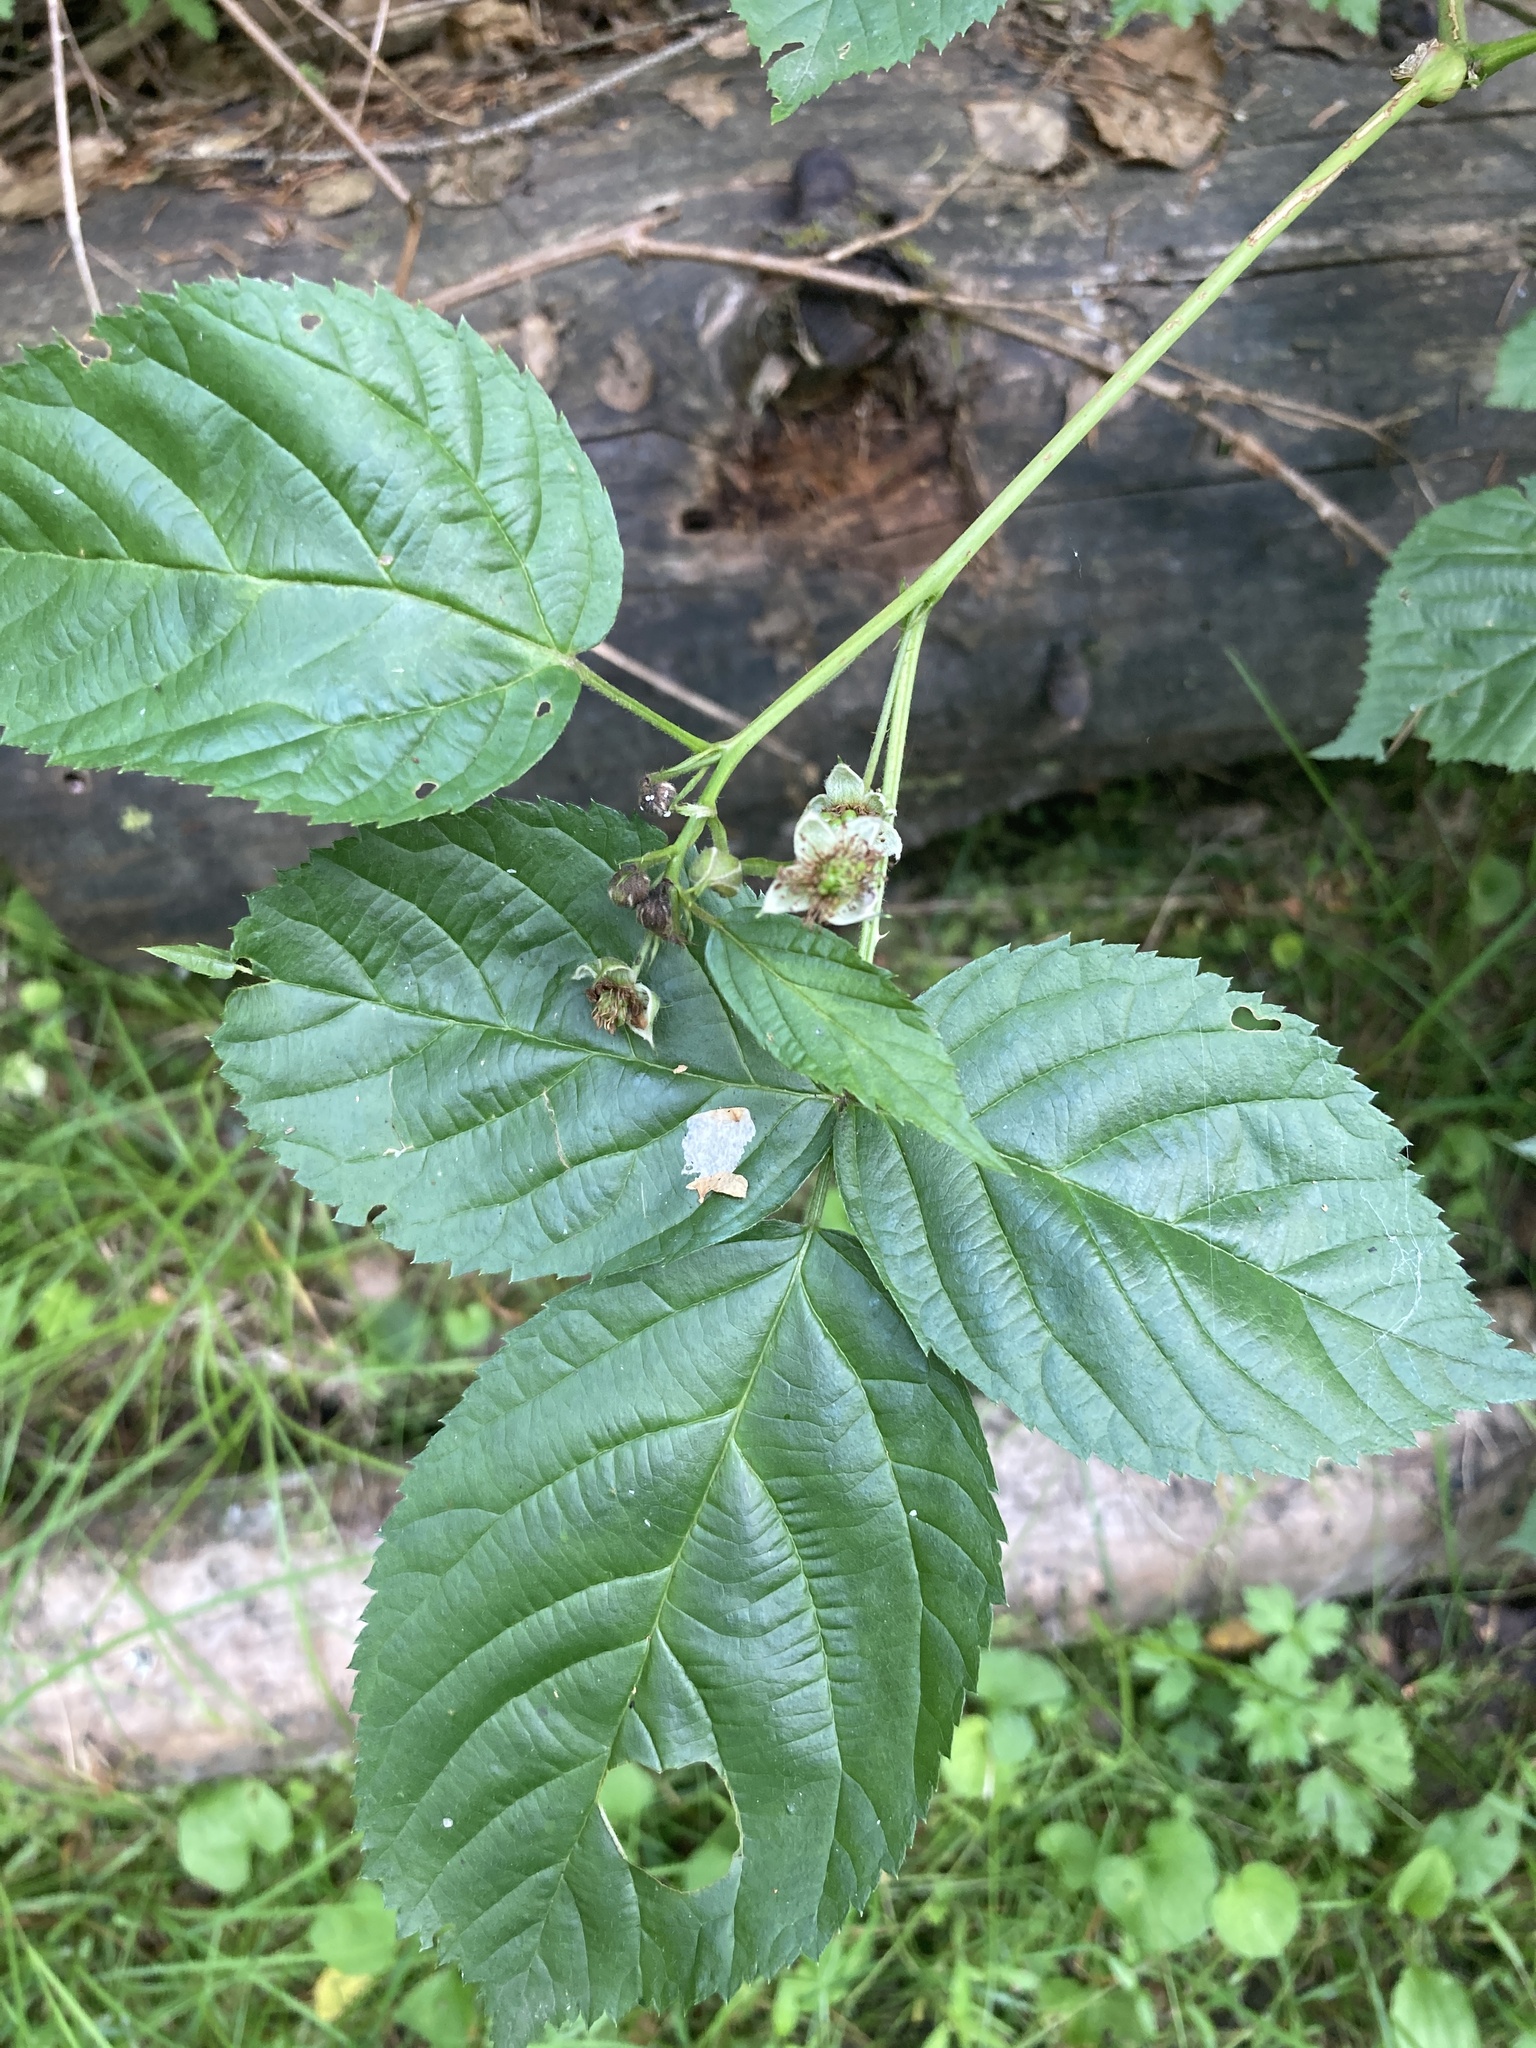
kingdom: Plantae
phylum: Tracheophyta
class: Magnoliopsida
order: Rosales
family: Rosaceae
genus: Rubus
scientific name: Rubus polonicus
